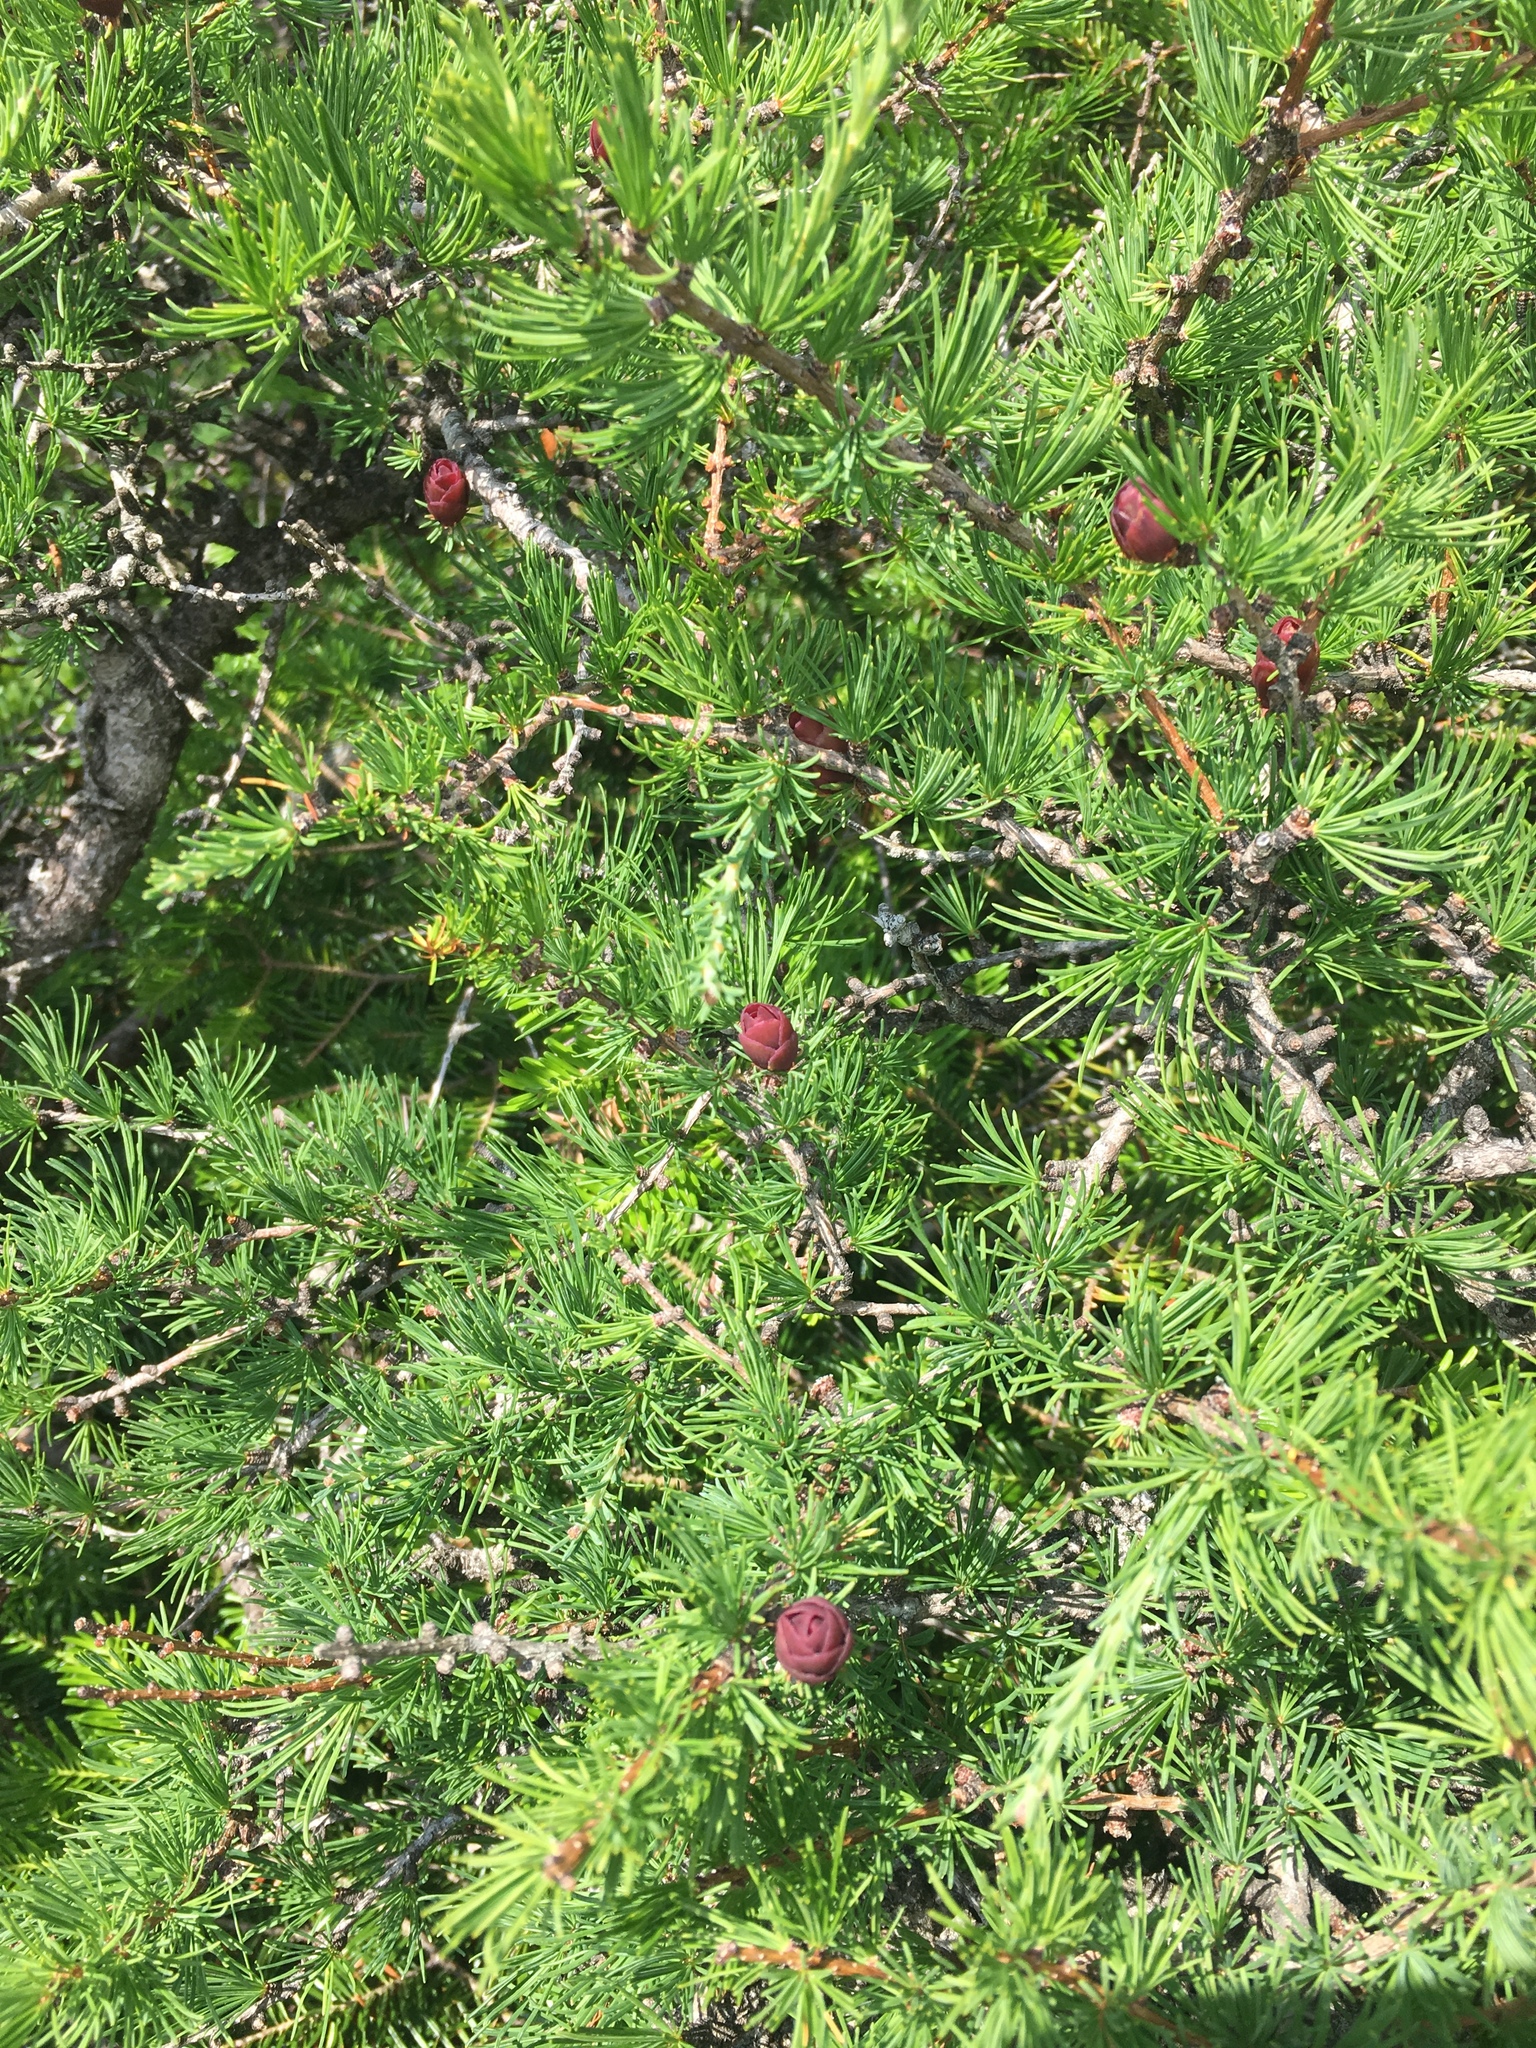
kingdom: Plantae
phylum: Tracheophyta
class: Pinopsida
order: Pinales
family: Pinaceae
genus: Larix
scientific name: Larix laricina
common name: American larch
